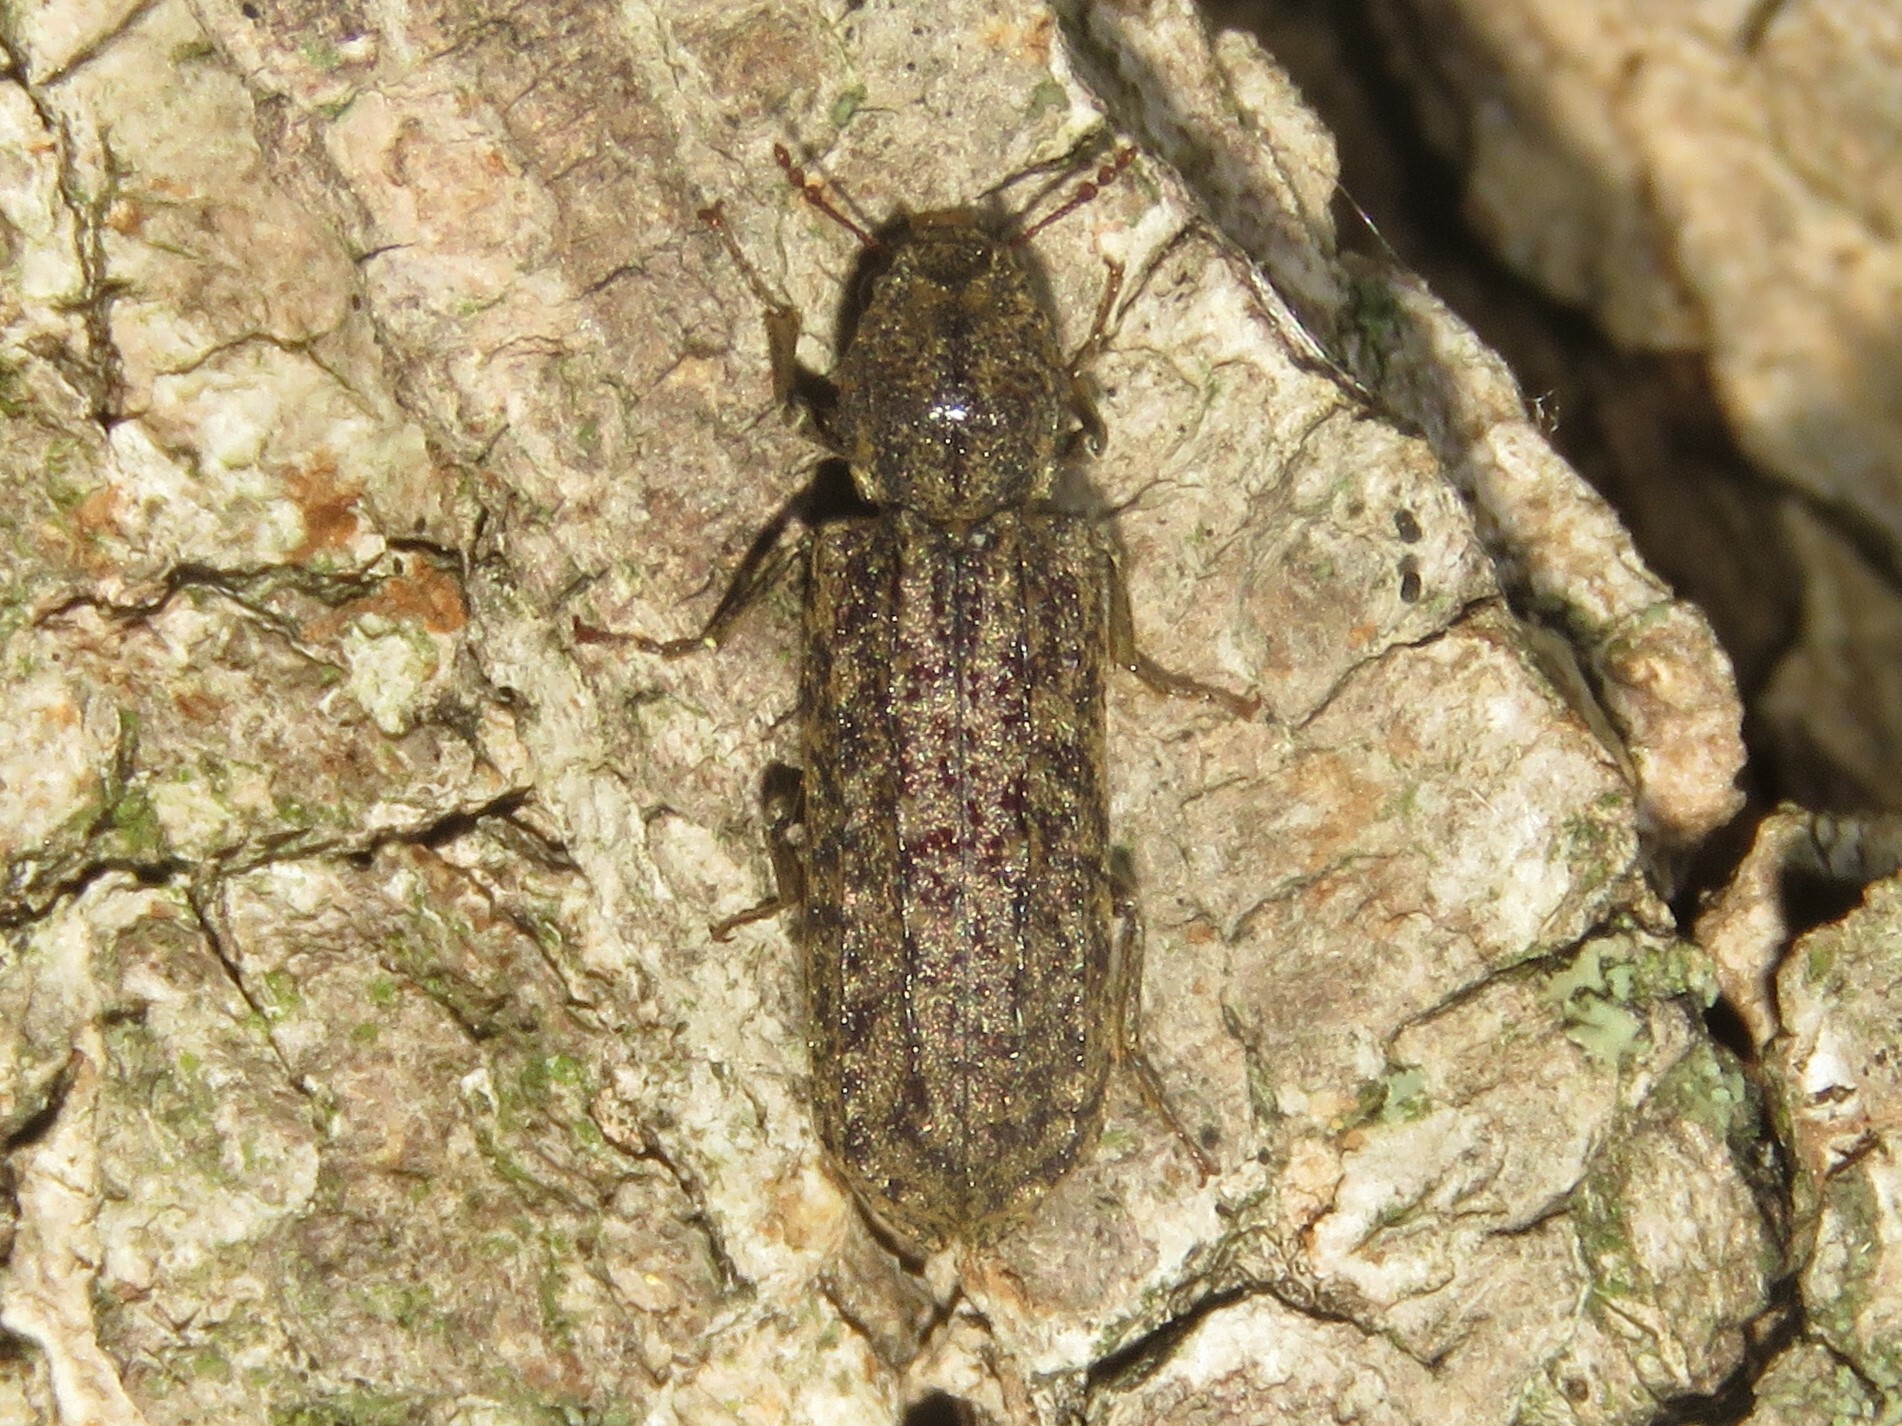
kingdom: Animalia
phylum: Arthropoda
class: Insecta
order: Coleoptera
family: Bostrichidae
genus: Lichenophanes
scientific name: Lichenophanes bicornis
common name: Two-horned powder-post beetle
